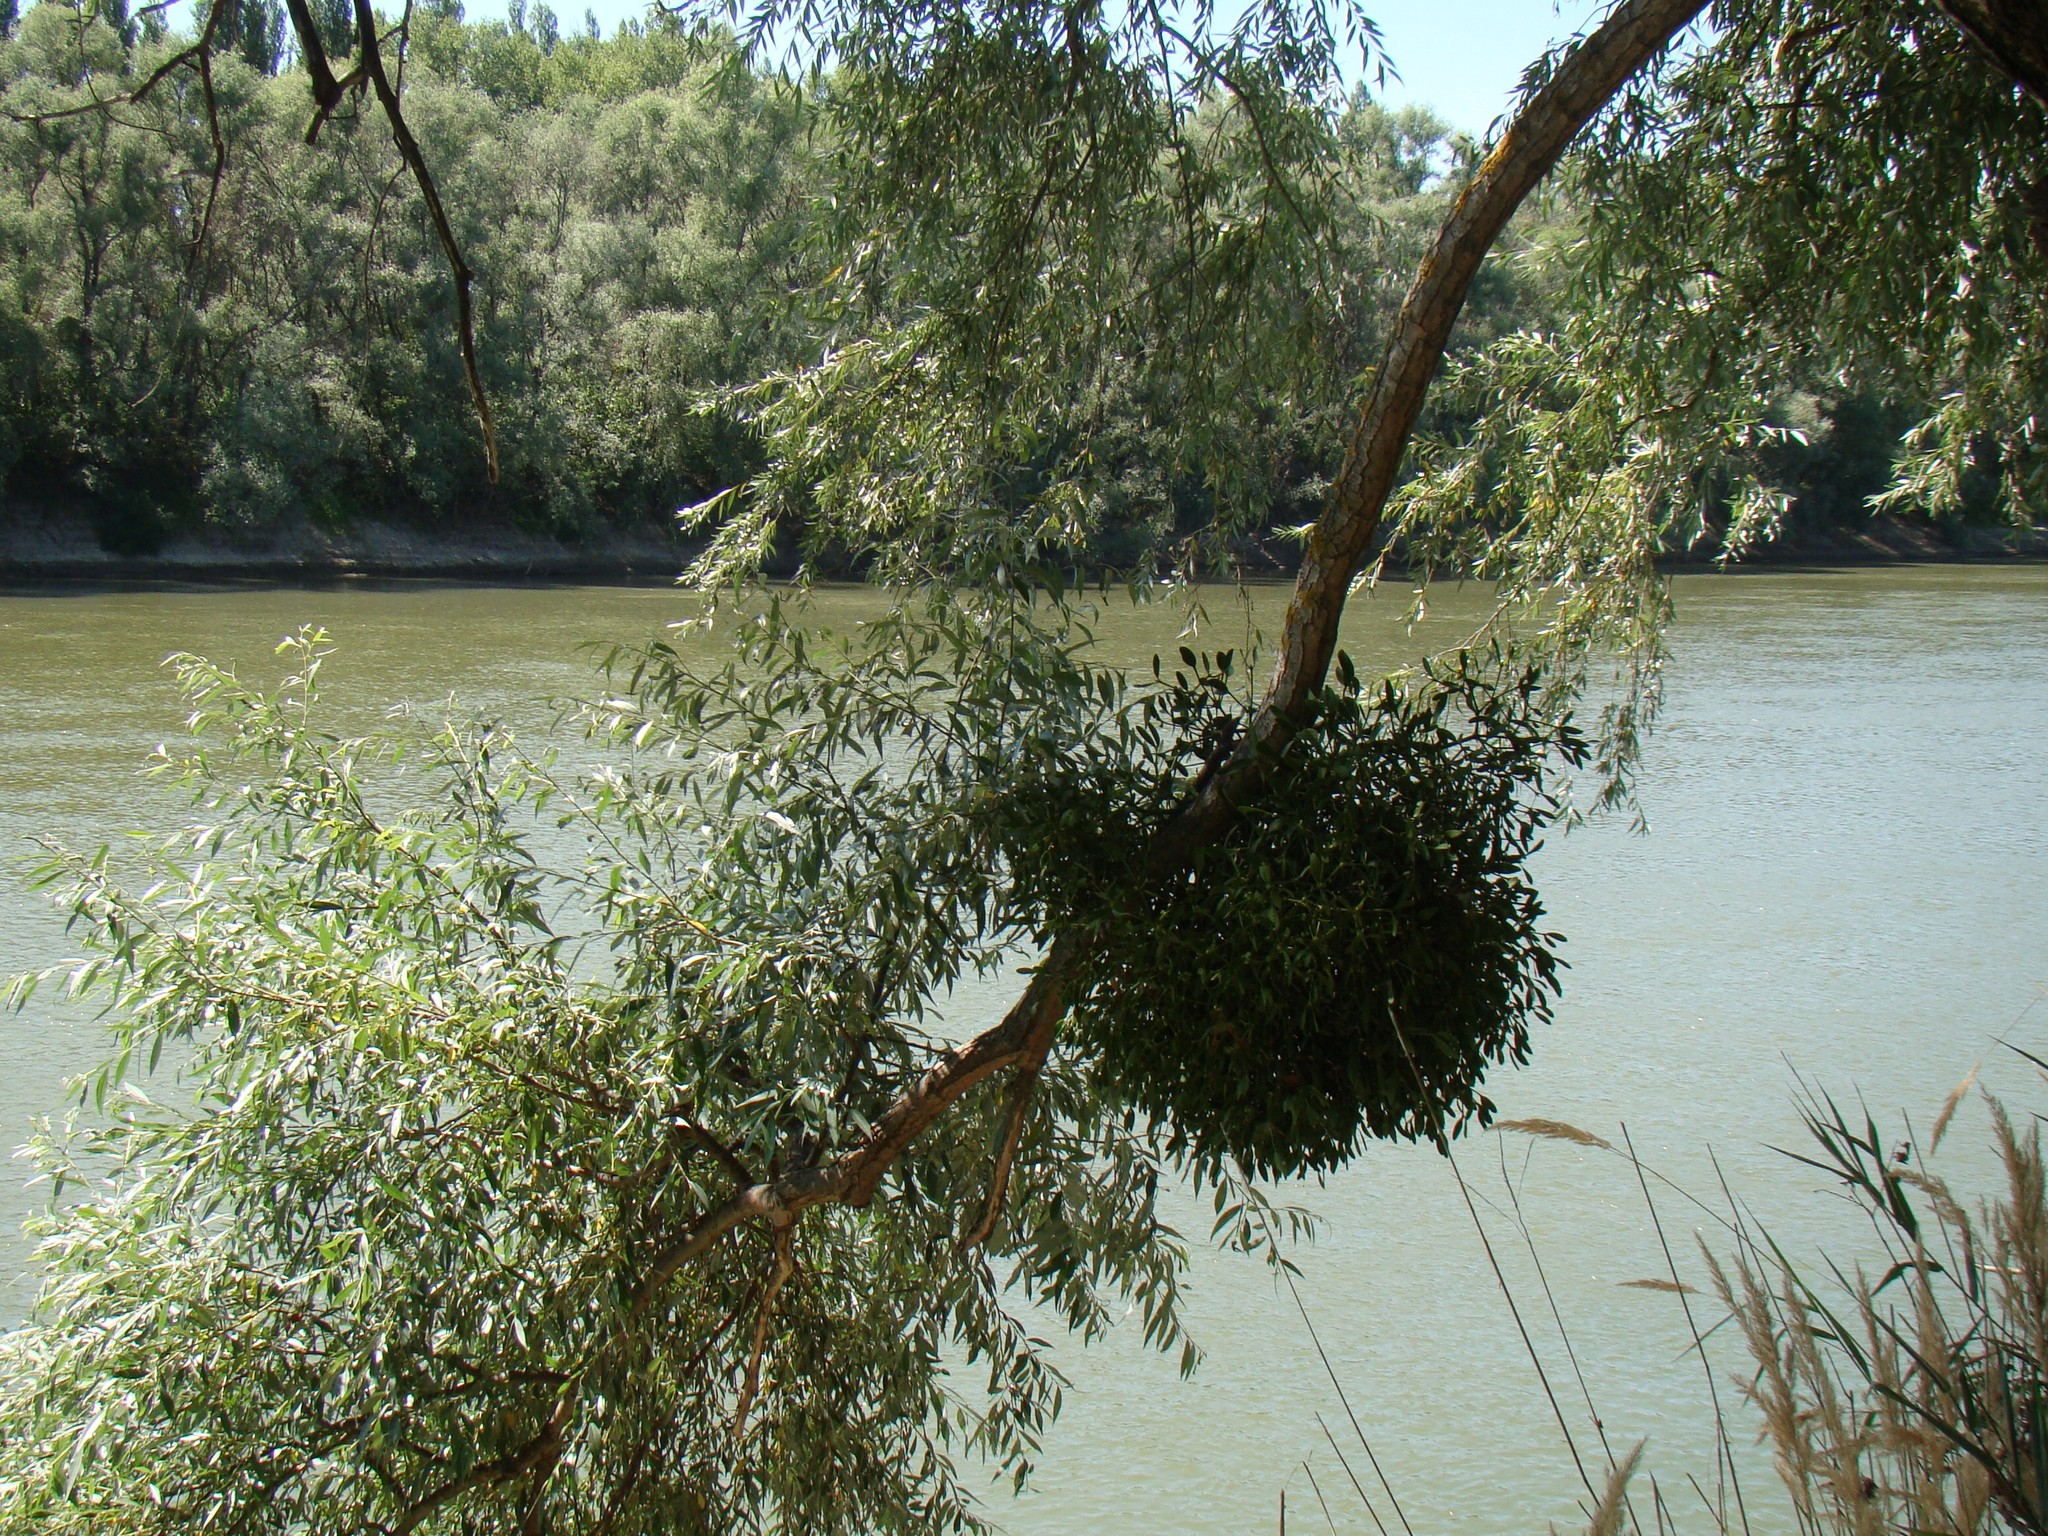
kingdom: Plantae
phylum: Tracheophyta
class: Magnoliopsida
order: Santalales
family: Viscaceae
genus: Viscum
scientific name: Viscum album
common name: Mistletoe
